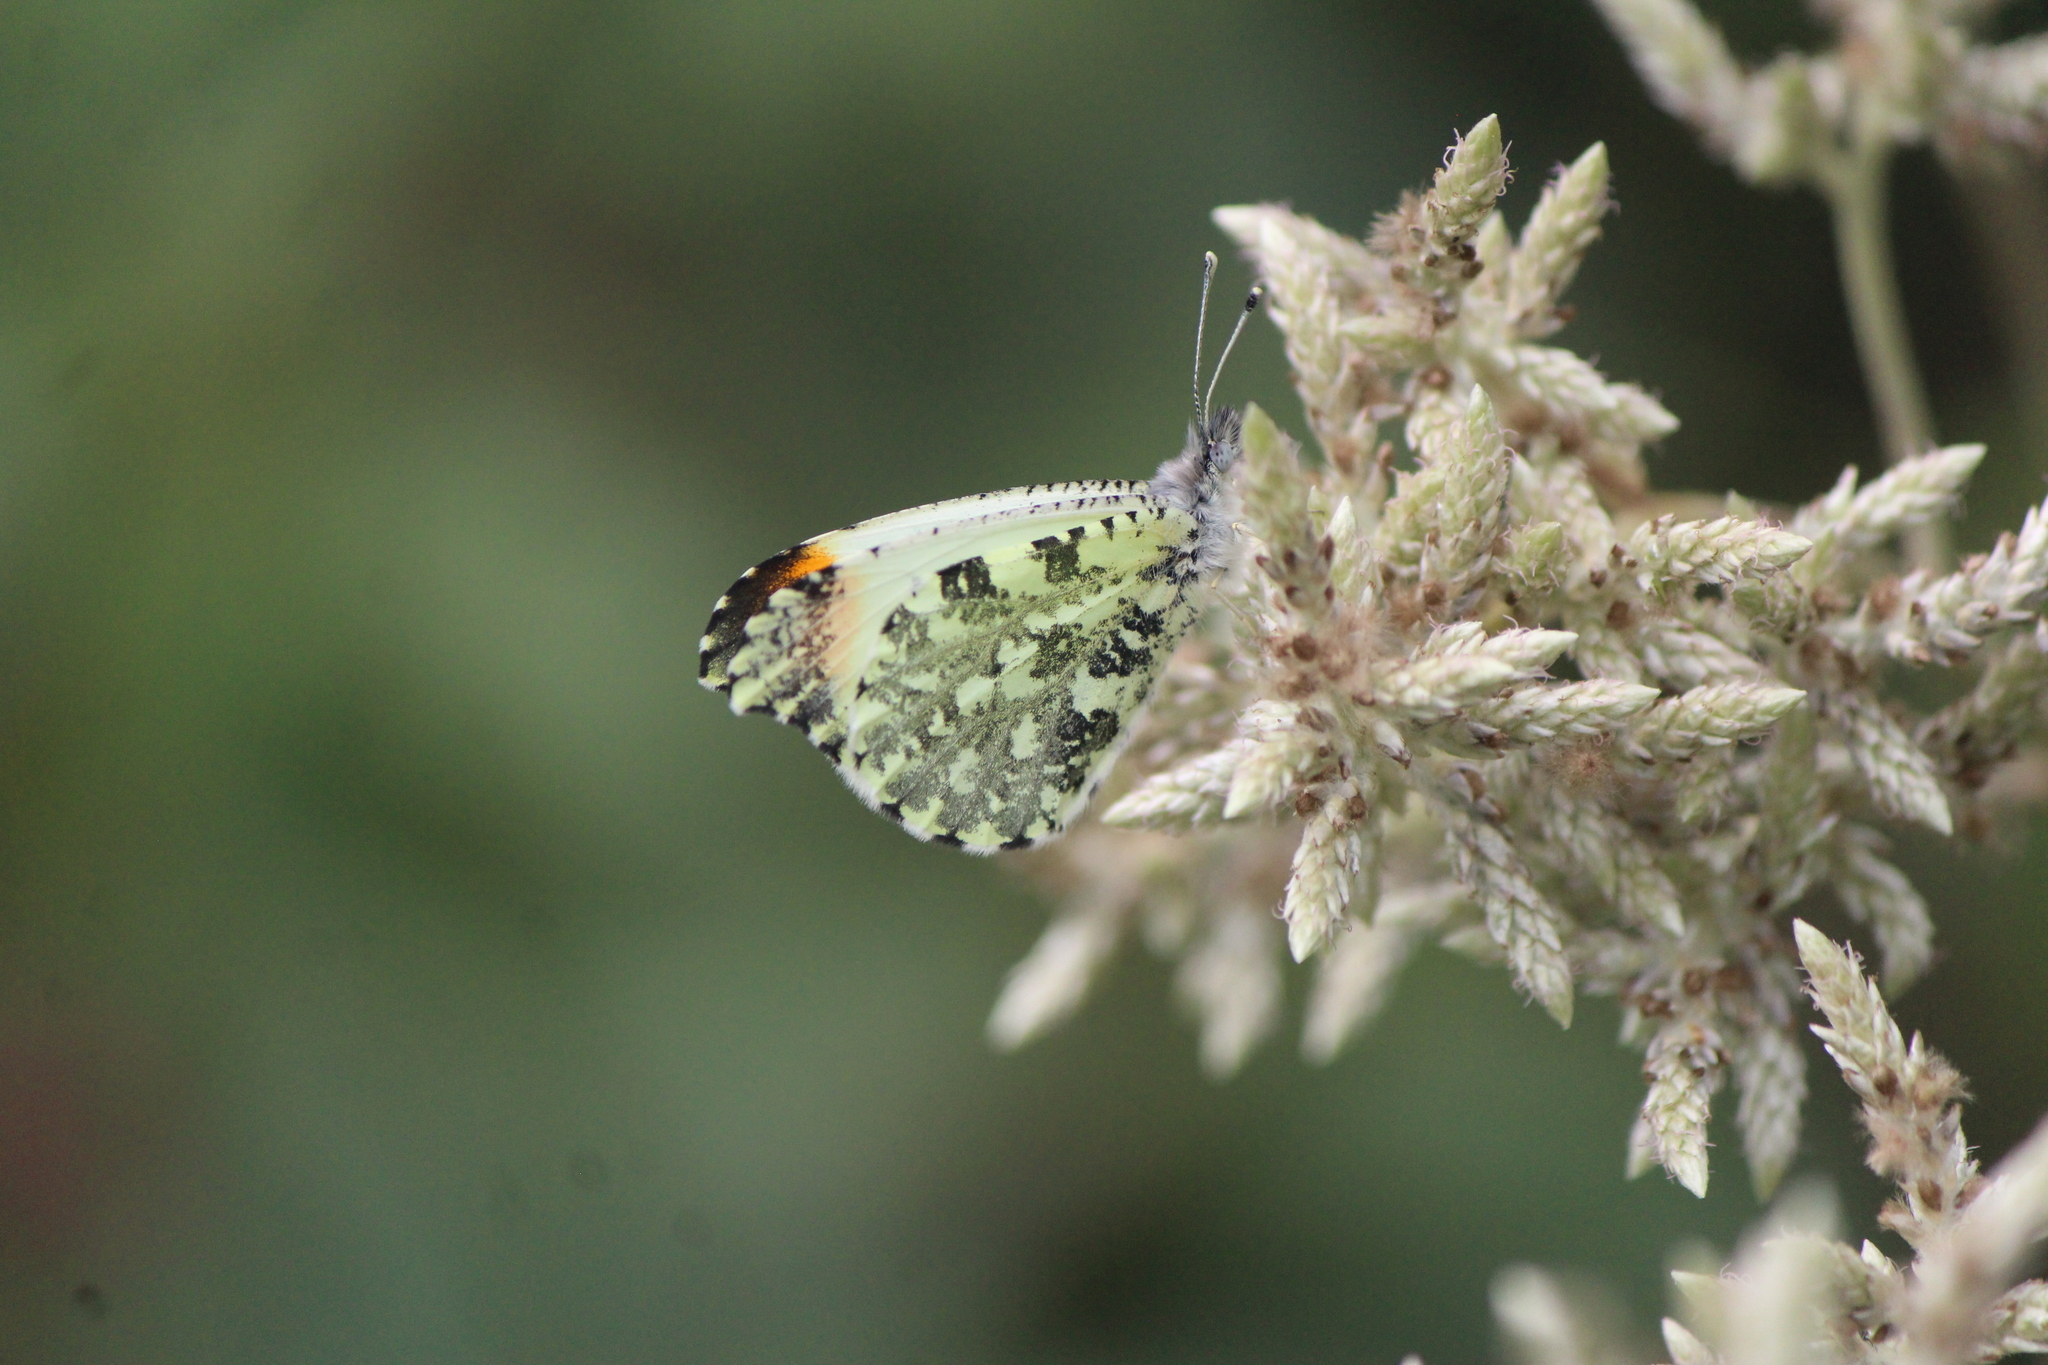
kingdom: Animalia
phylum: Arthropoda
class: Insecta
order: Lepidoptera
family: Pieridae
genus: Anthocharis
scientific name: Anthocharis limonea
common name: Mexican orangetip
